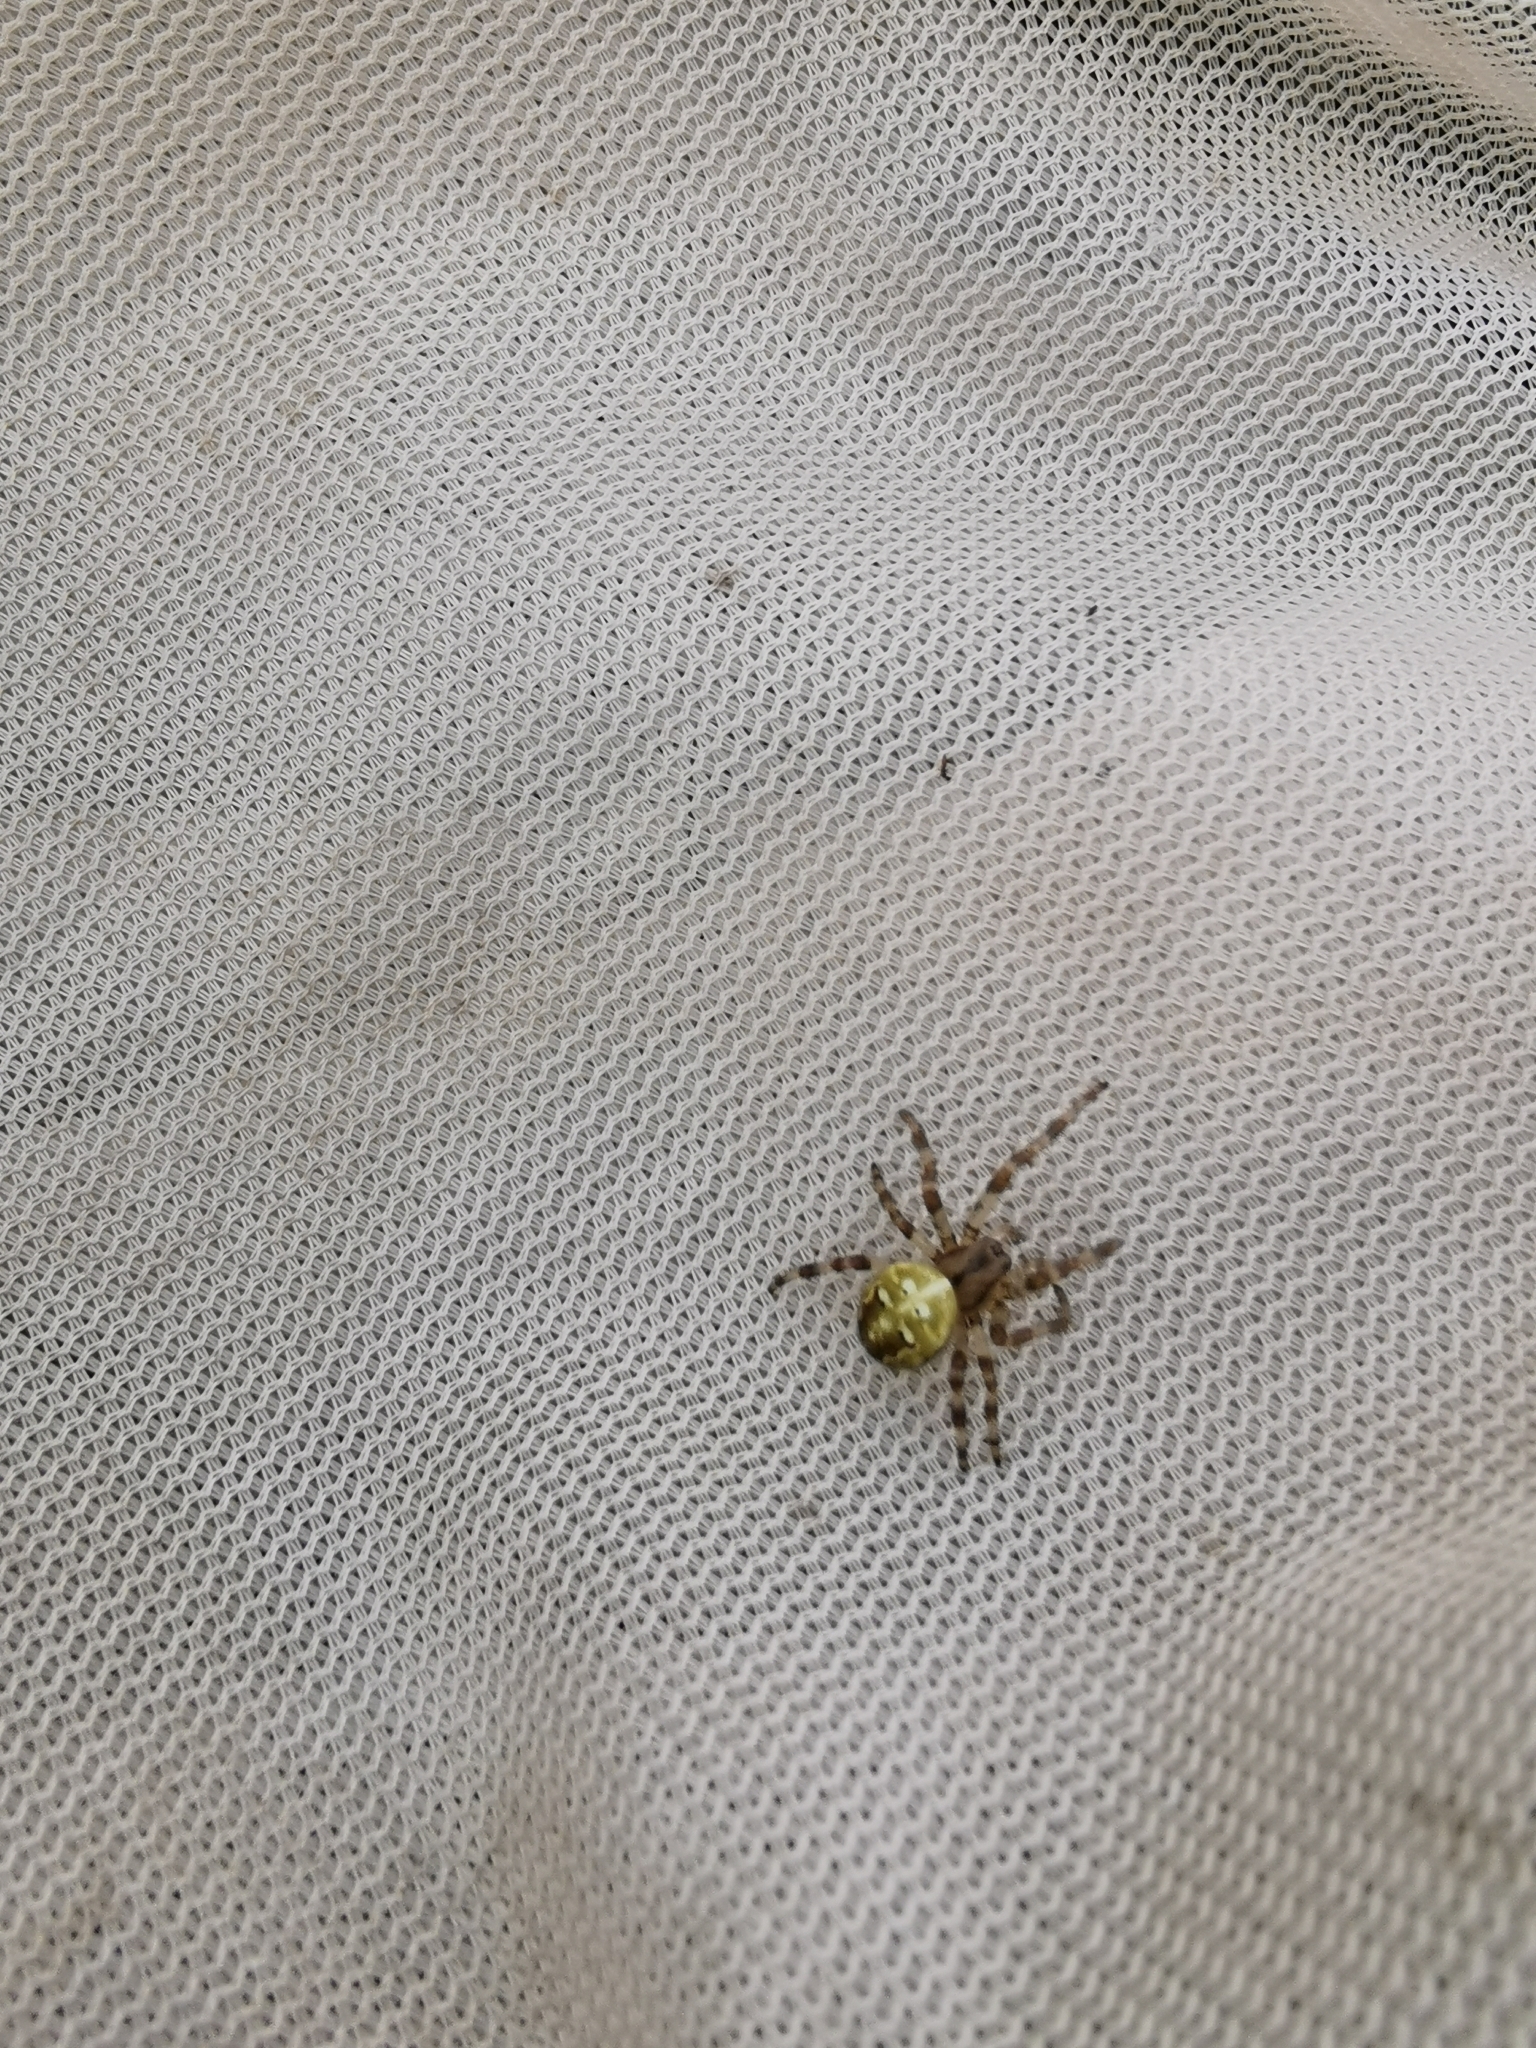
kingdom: Animalia
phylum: Arthropoda
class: Arachnida
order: Araneae
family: Araneidae
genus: Araneus
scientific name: Araneus quadratus
